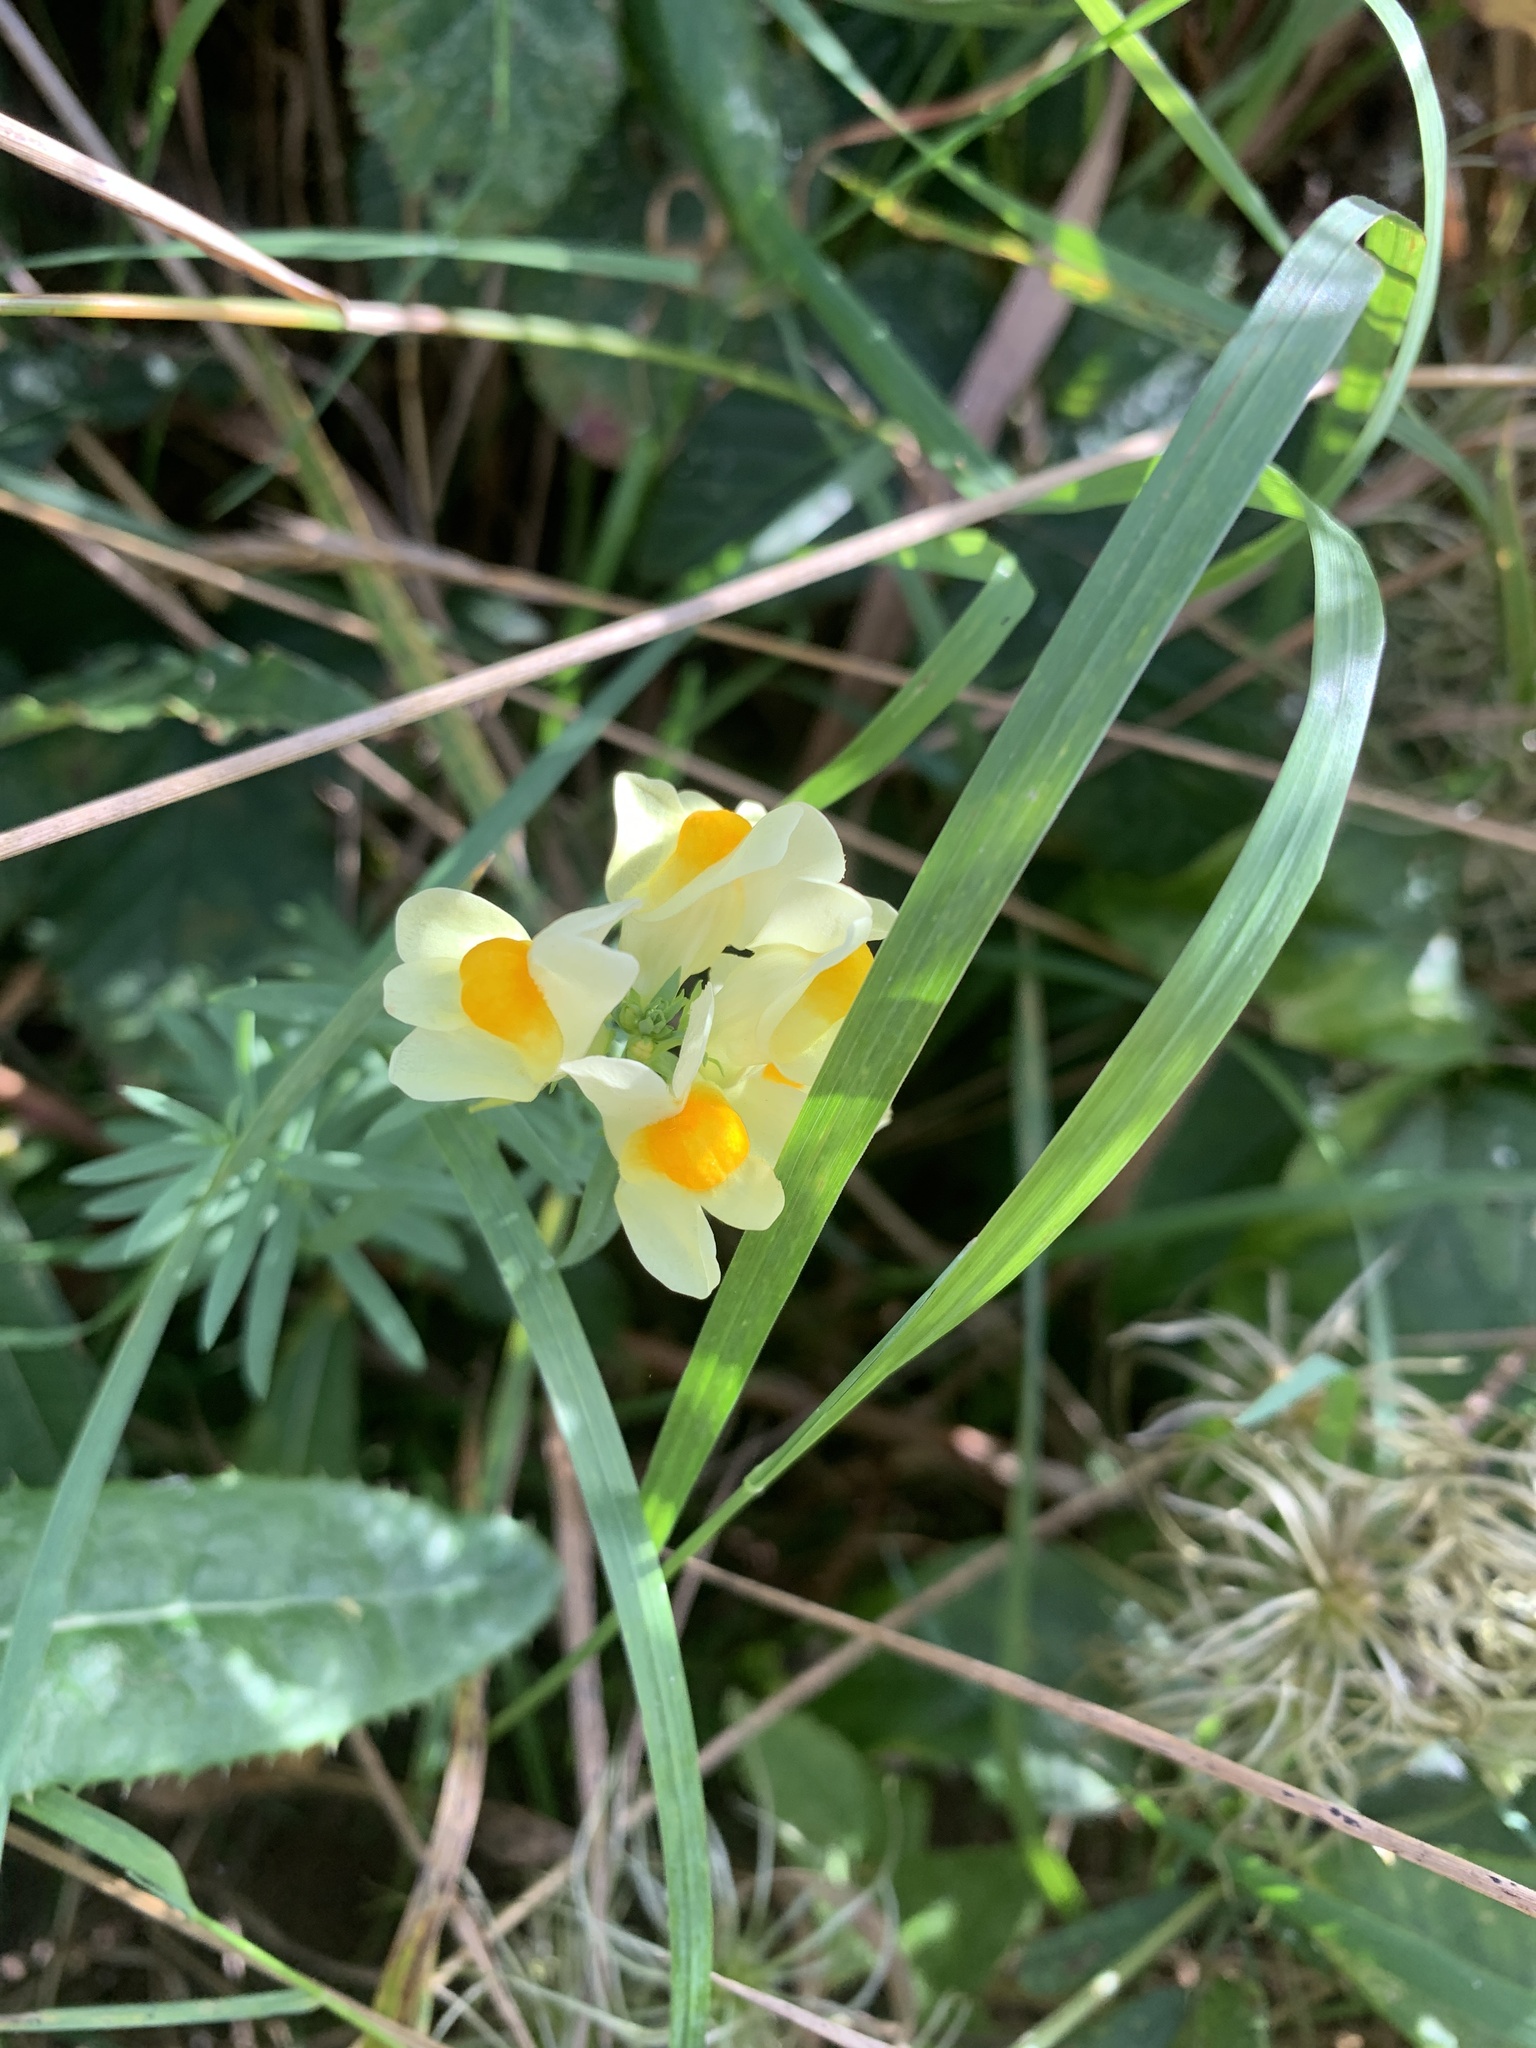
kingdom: Plantae
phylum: Tracheophyta
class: Magnoliopsida
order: Lamiales
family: Plantaginaceae
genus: Linaria
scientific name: Linaria vulgaris
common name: Butter and eggs
